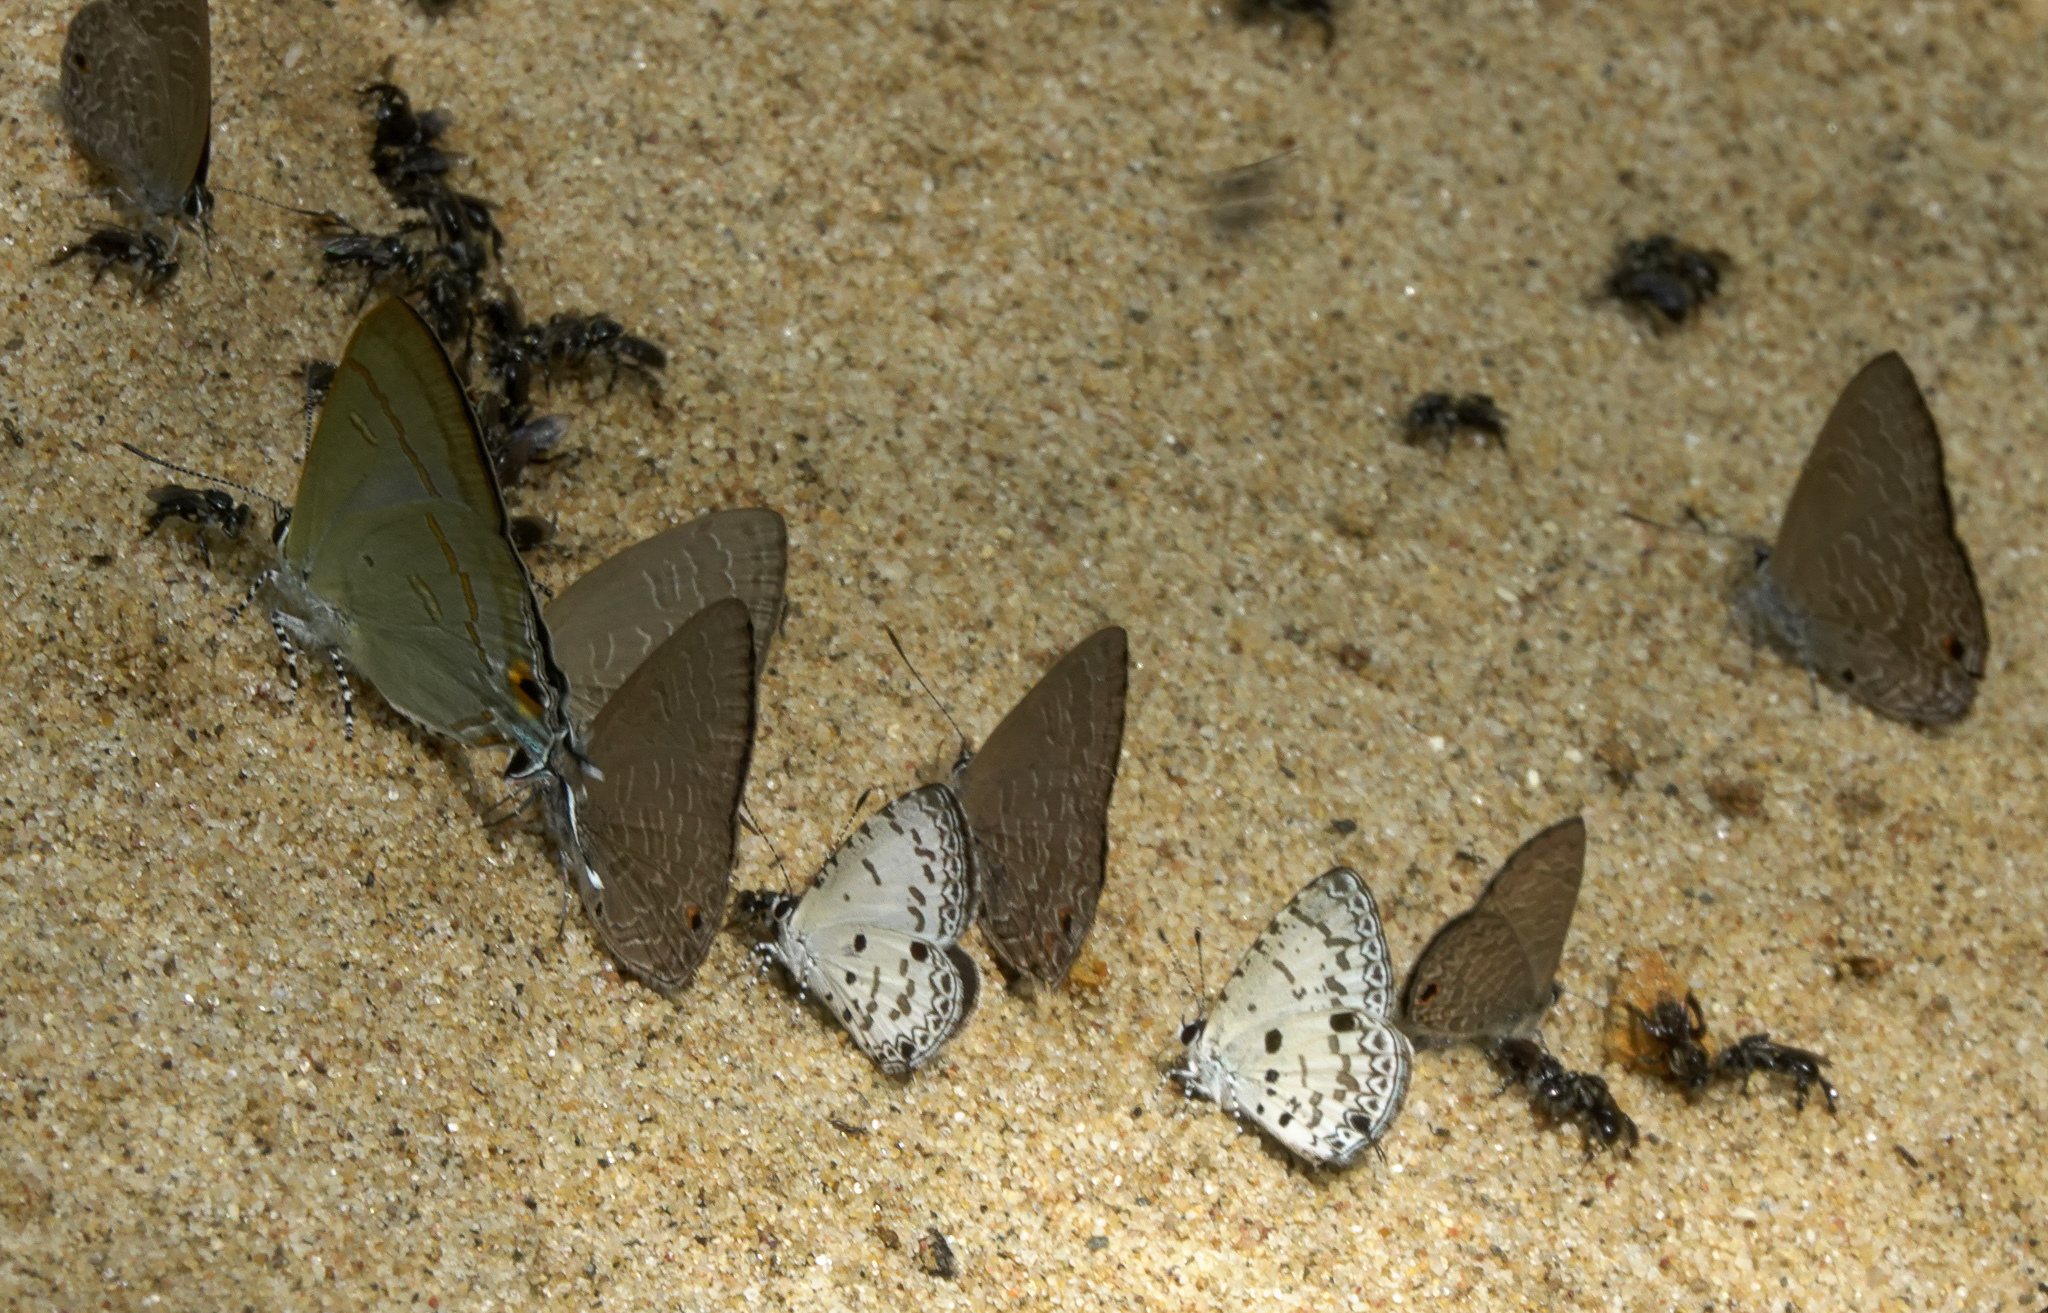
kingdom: Animalia
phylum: Arthropoda
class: Insecta
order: Lepidoptera
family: Lycaenidae
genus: Hypolycaena
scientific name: Hypolycaena erylus
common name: Common tit
